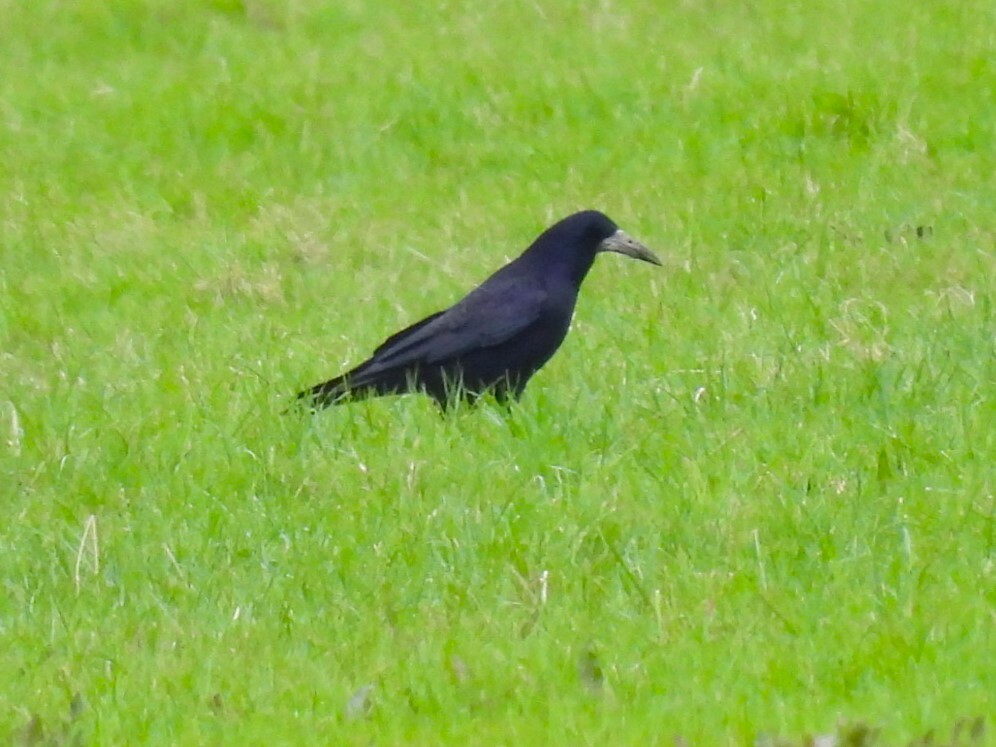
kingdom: Animalia
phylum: Chordata
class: Aves
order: Passeriformes
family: Corvidae
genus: Corvus
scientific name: Corvus frugilegus
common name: Rook
